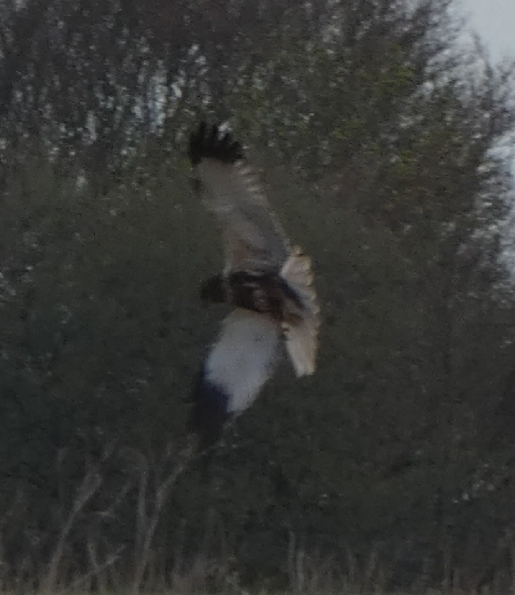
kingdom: Animalia
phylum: Chordata
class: Aves
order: Accipitriformes
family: Accipitridae
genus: Circus
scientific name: Circus aeruginosus
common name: Western marsh harrier
